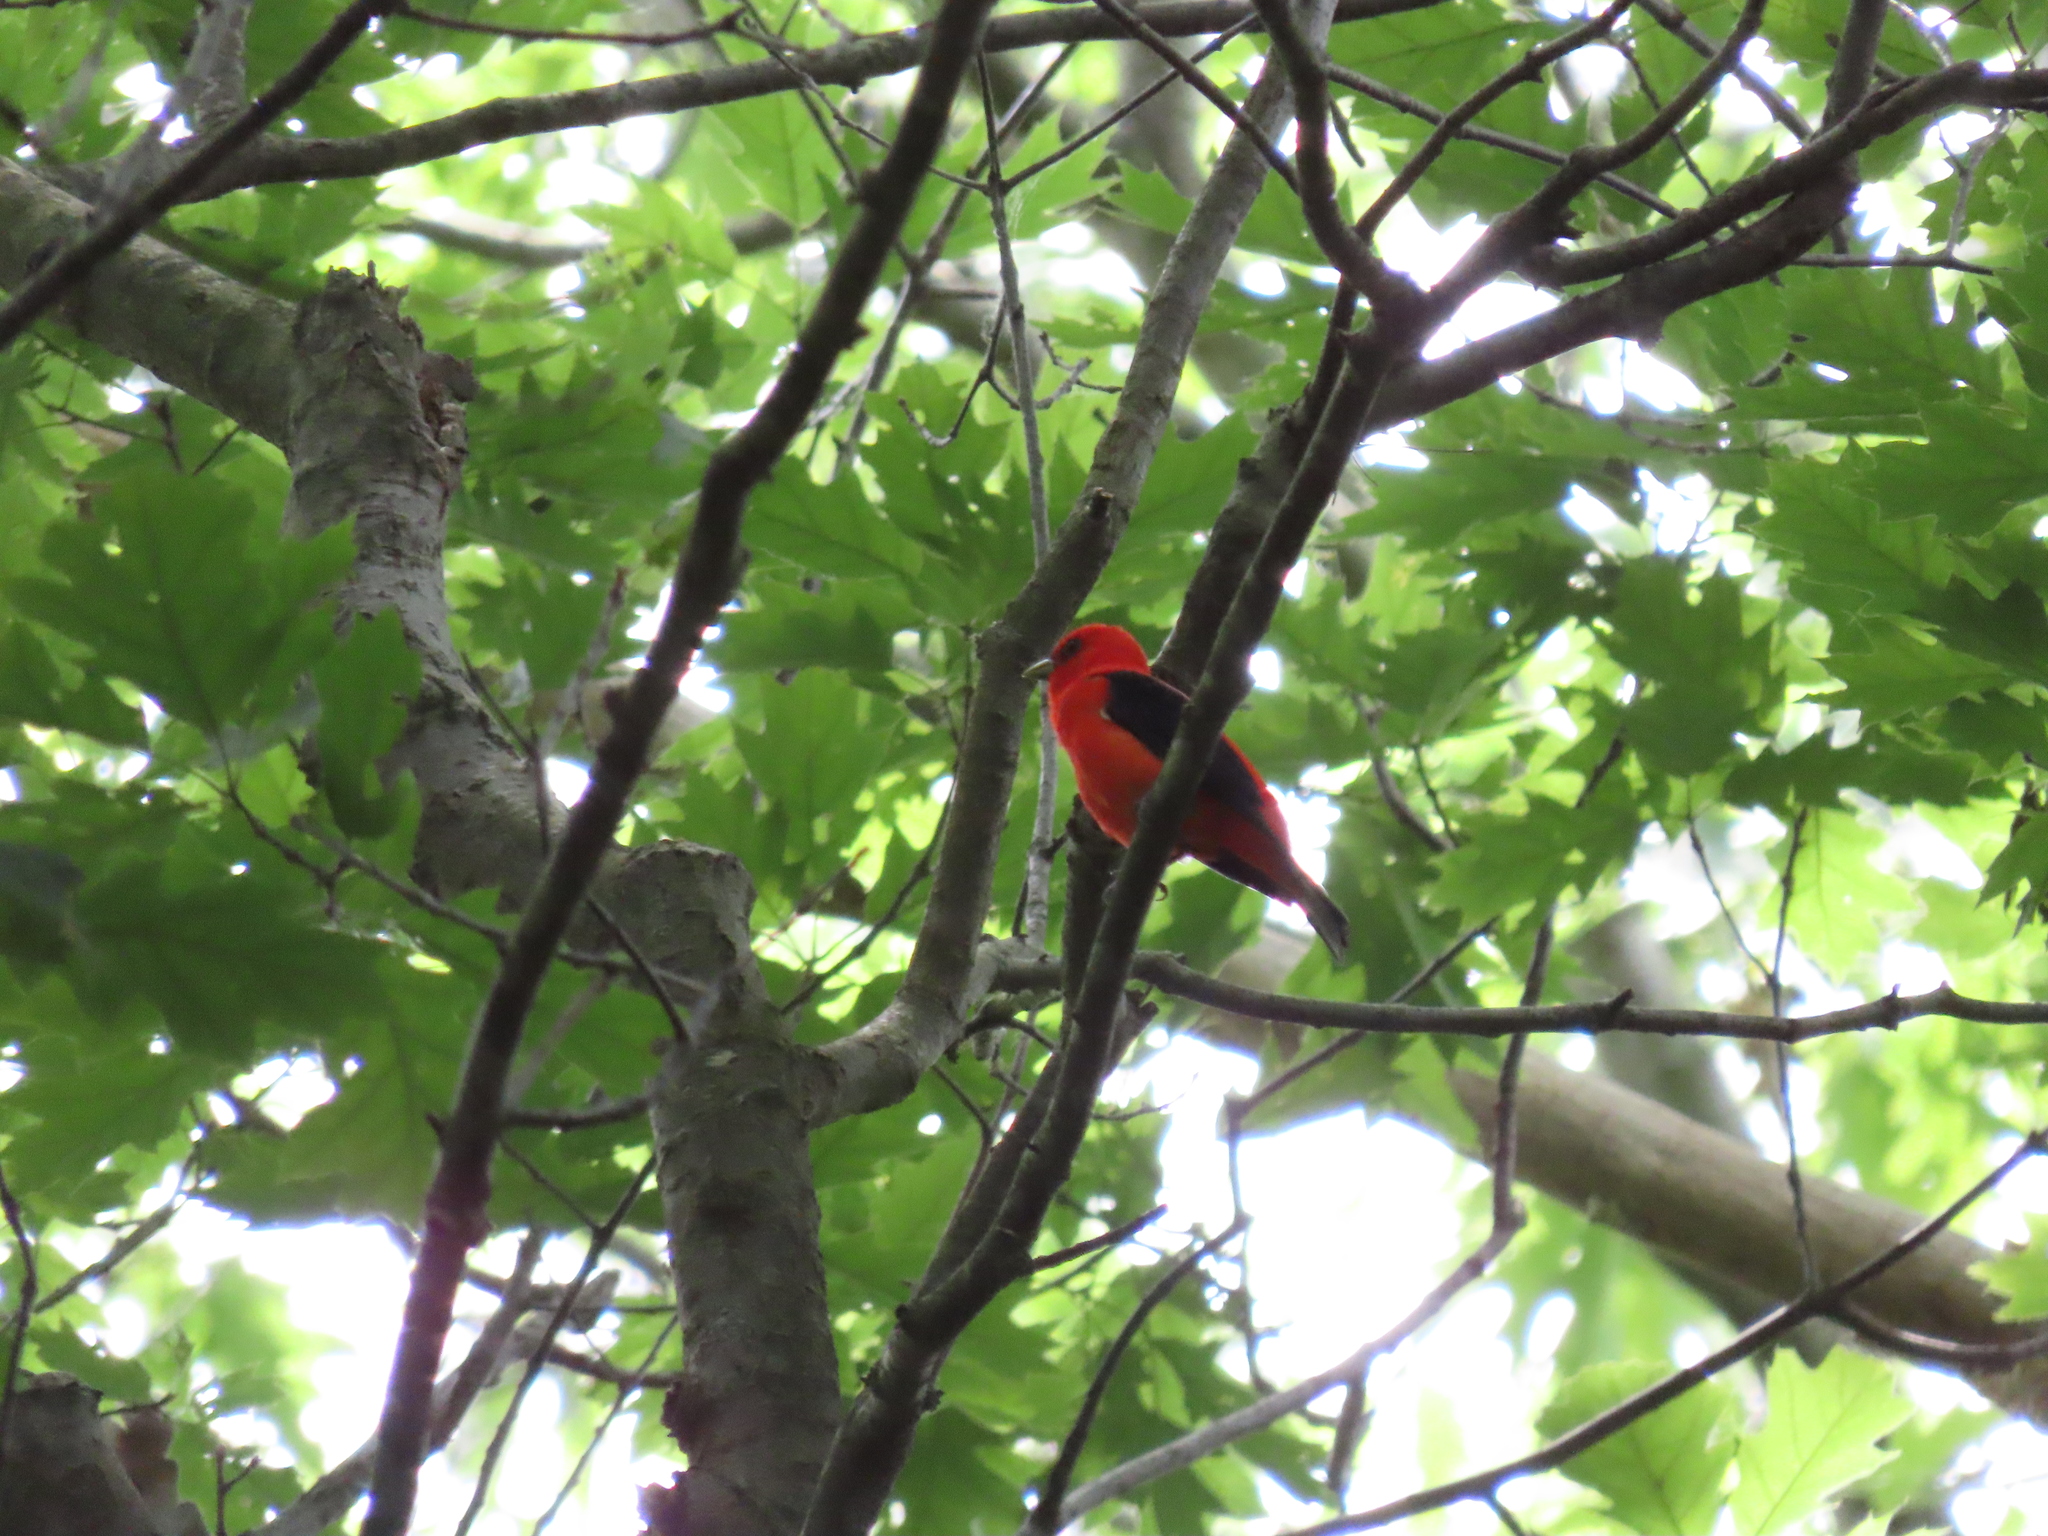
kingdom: Animalia
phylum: Chordata
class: Aves
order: Passeriformes
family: Cardinalidae
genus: Piranga
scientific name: Piranga olivacea
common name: Scarlet tanager
